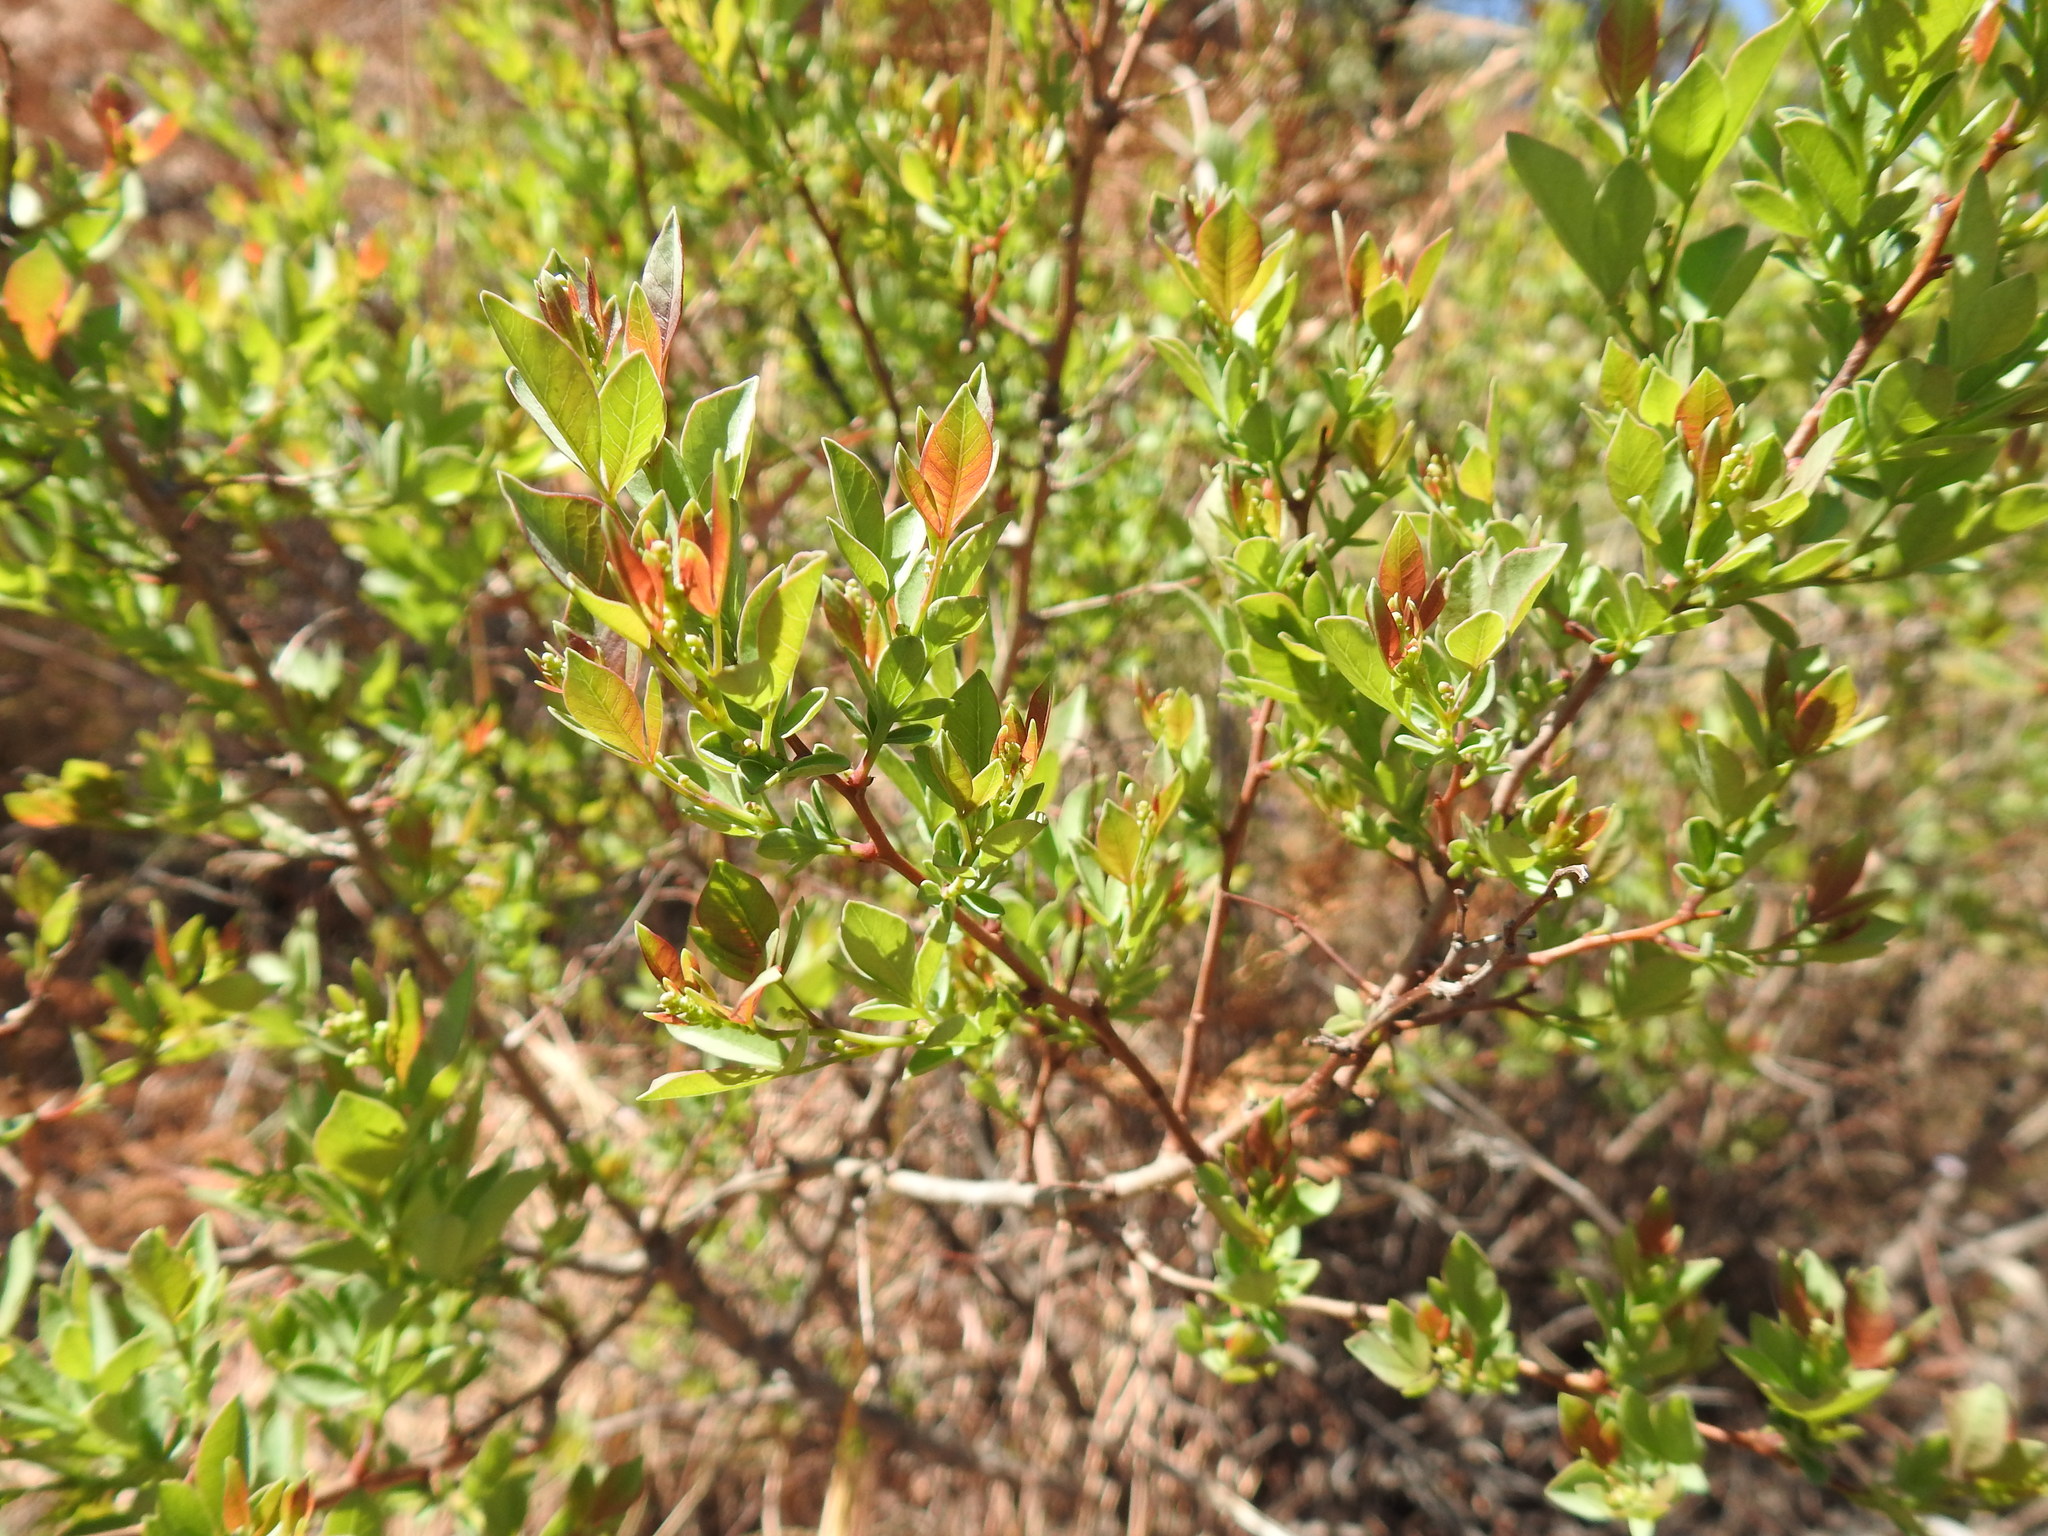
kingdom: Plantae
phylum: Tracheophyta
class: Magnoliopsida
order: Sapindales
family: Anacardiaceae
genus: Searsia
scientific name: Searsia zeyheri
